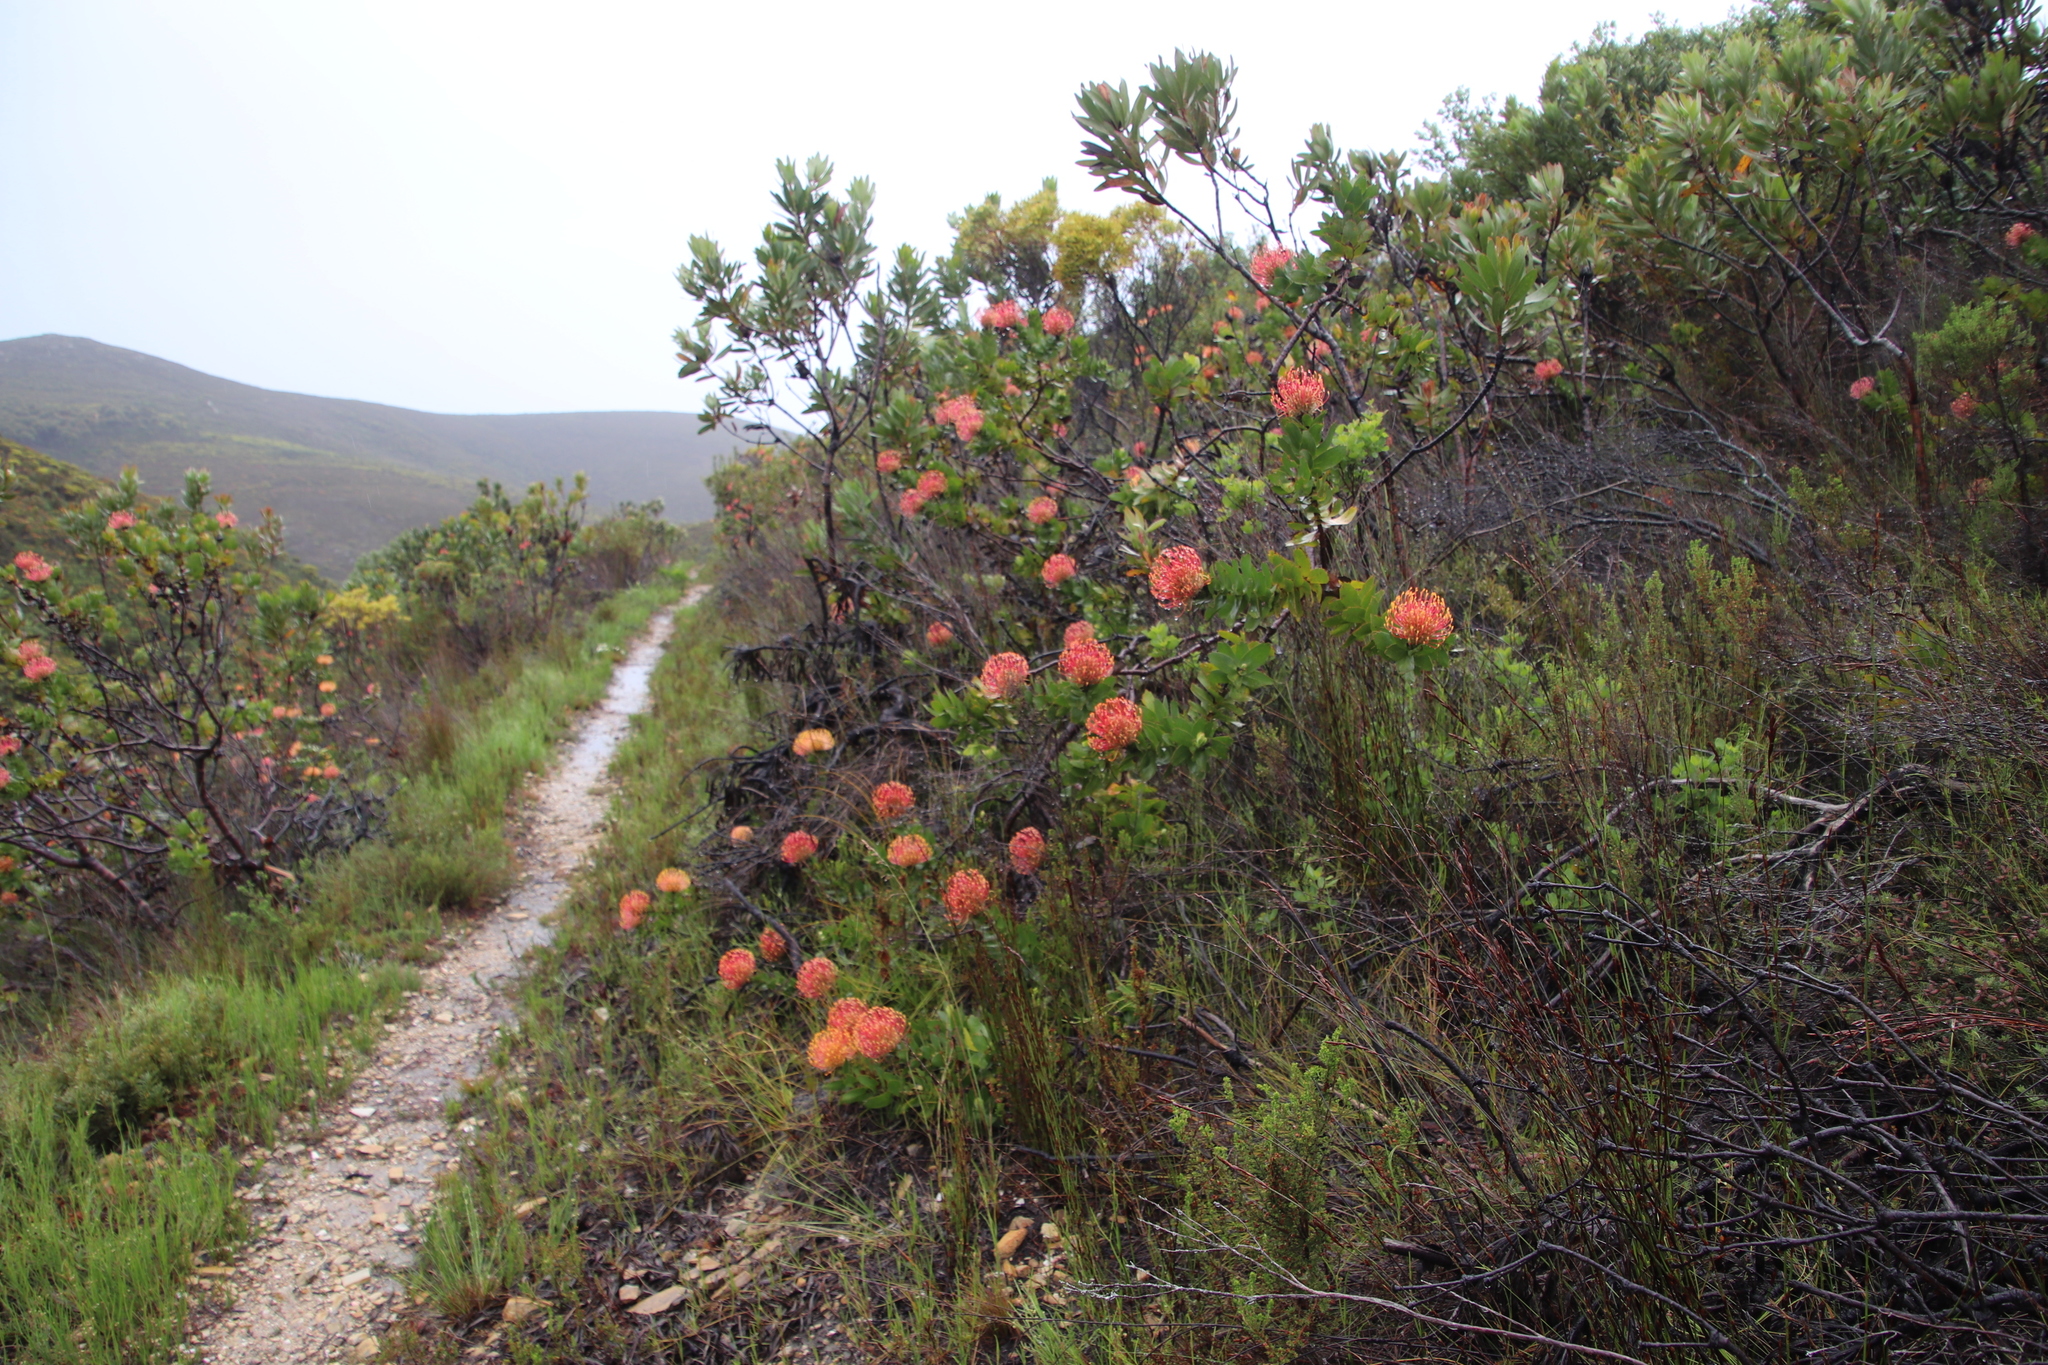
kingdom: Plantae
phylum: Tracheophyta
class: Magnoliopsida
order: Proteales
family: Proteaceae
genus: Leucospermum
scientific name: Leucospermum patersonii
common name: False tree pincushion
